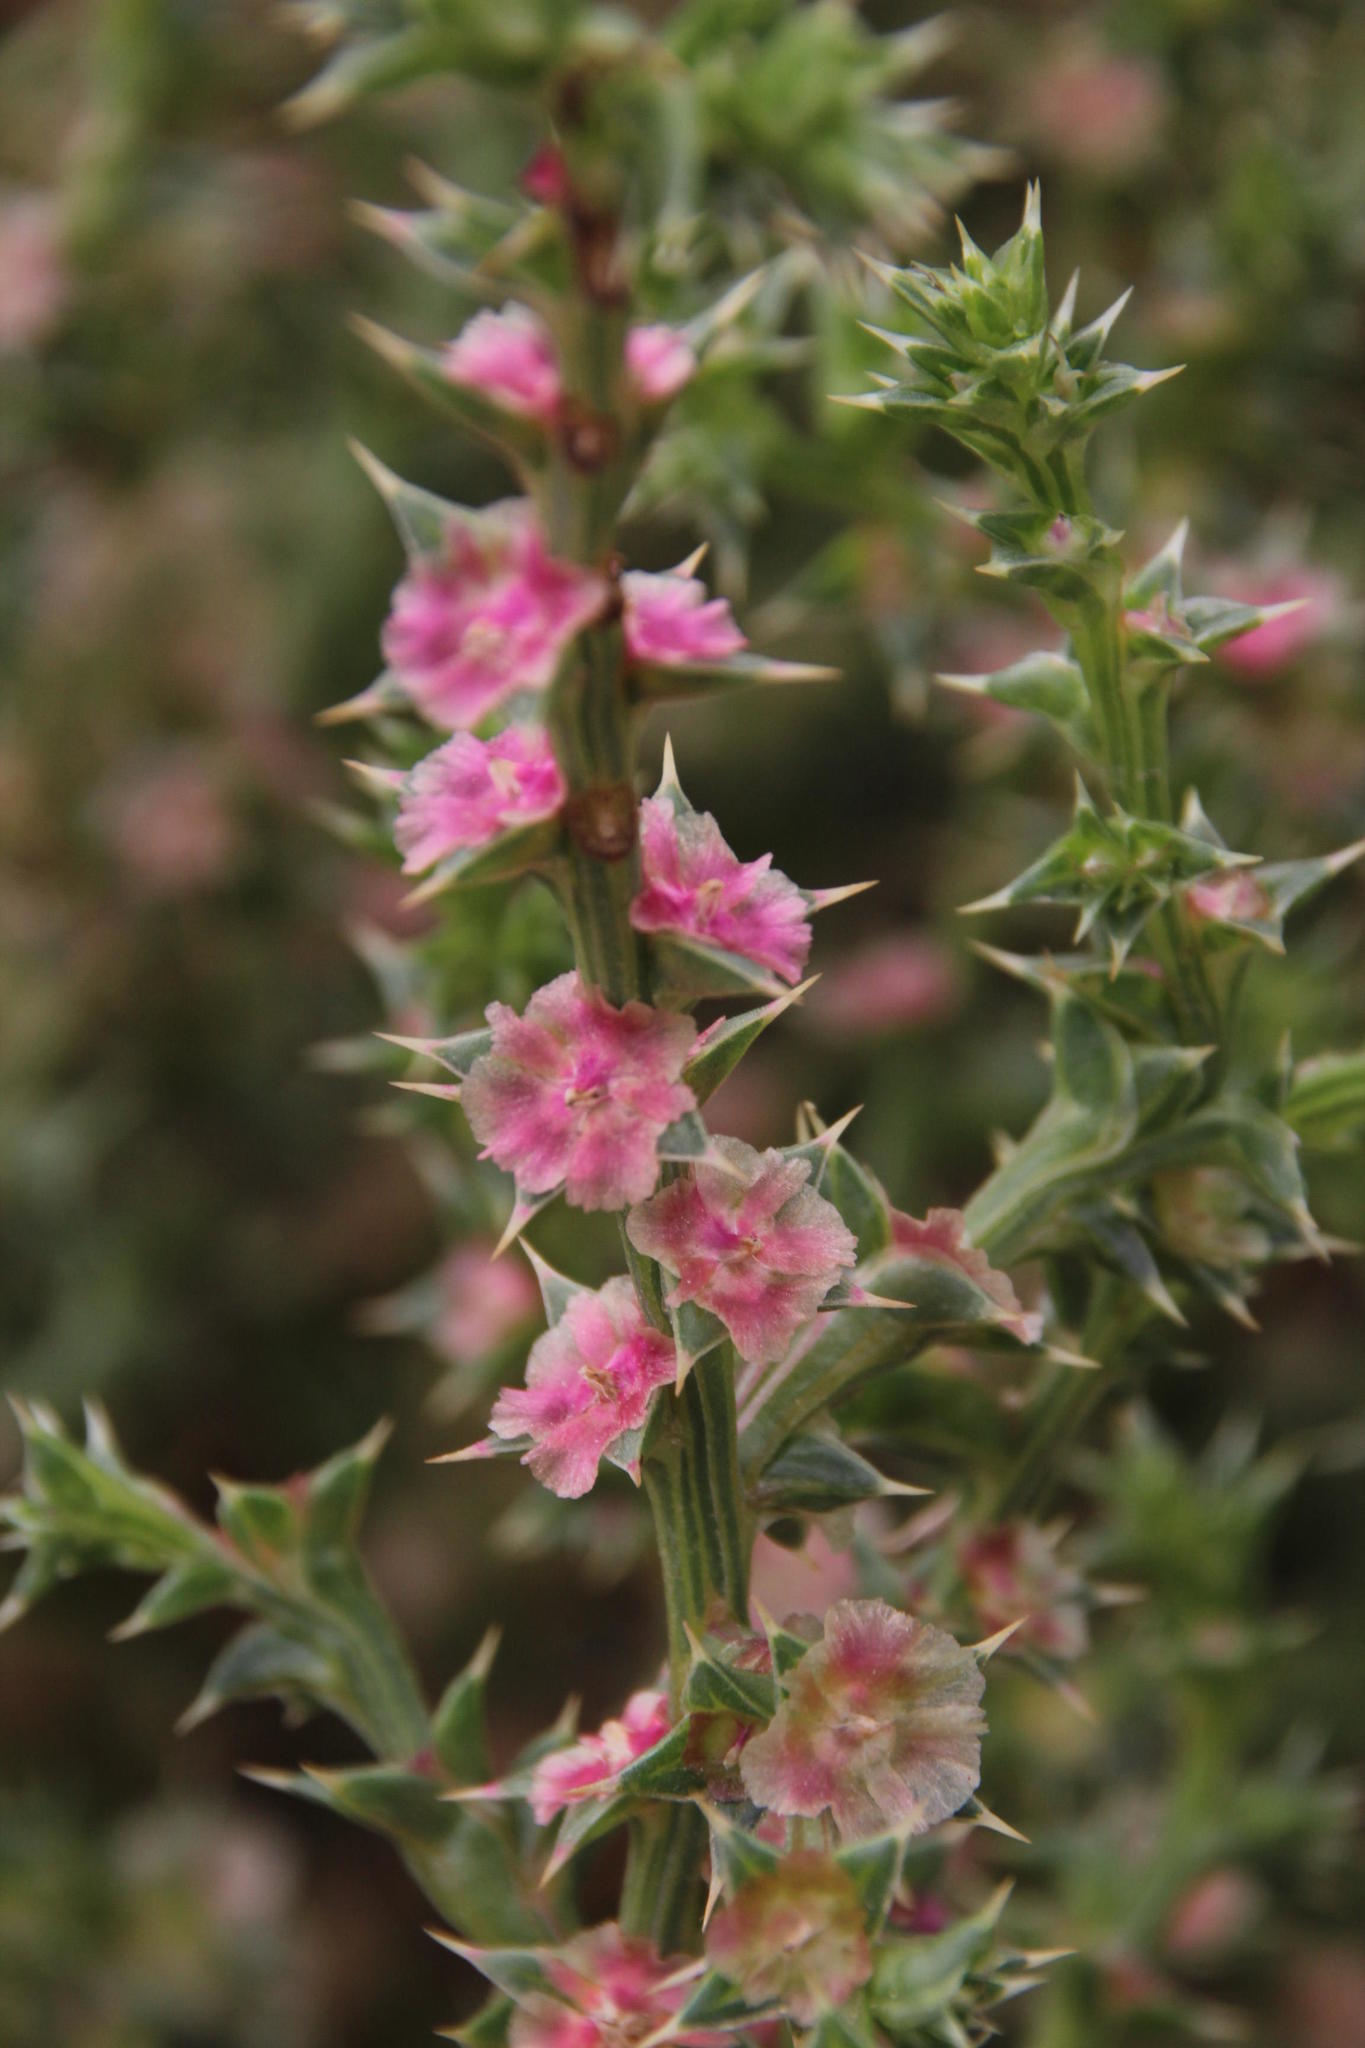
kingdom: Plantae
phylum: Tracheophyta
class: Magnoliopsida
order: Caryophyllales
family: Amaranthaceae
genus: Salsola
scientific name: Salsola kali
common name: Saltwort
